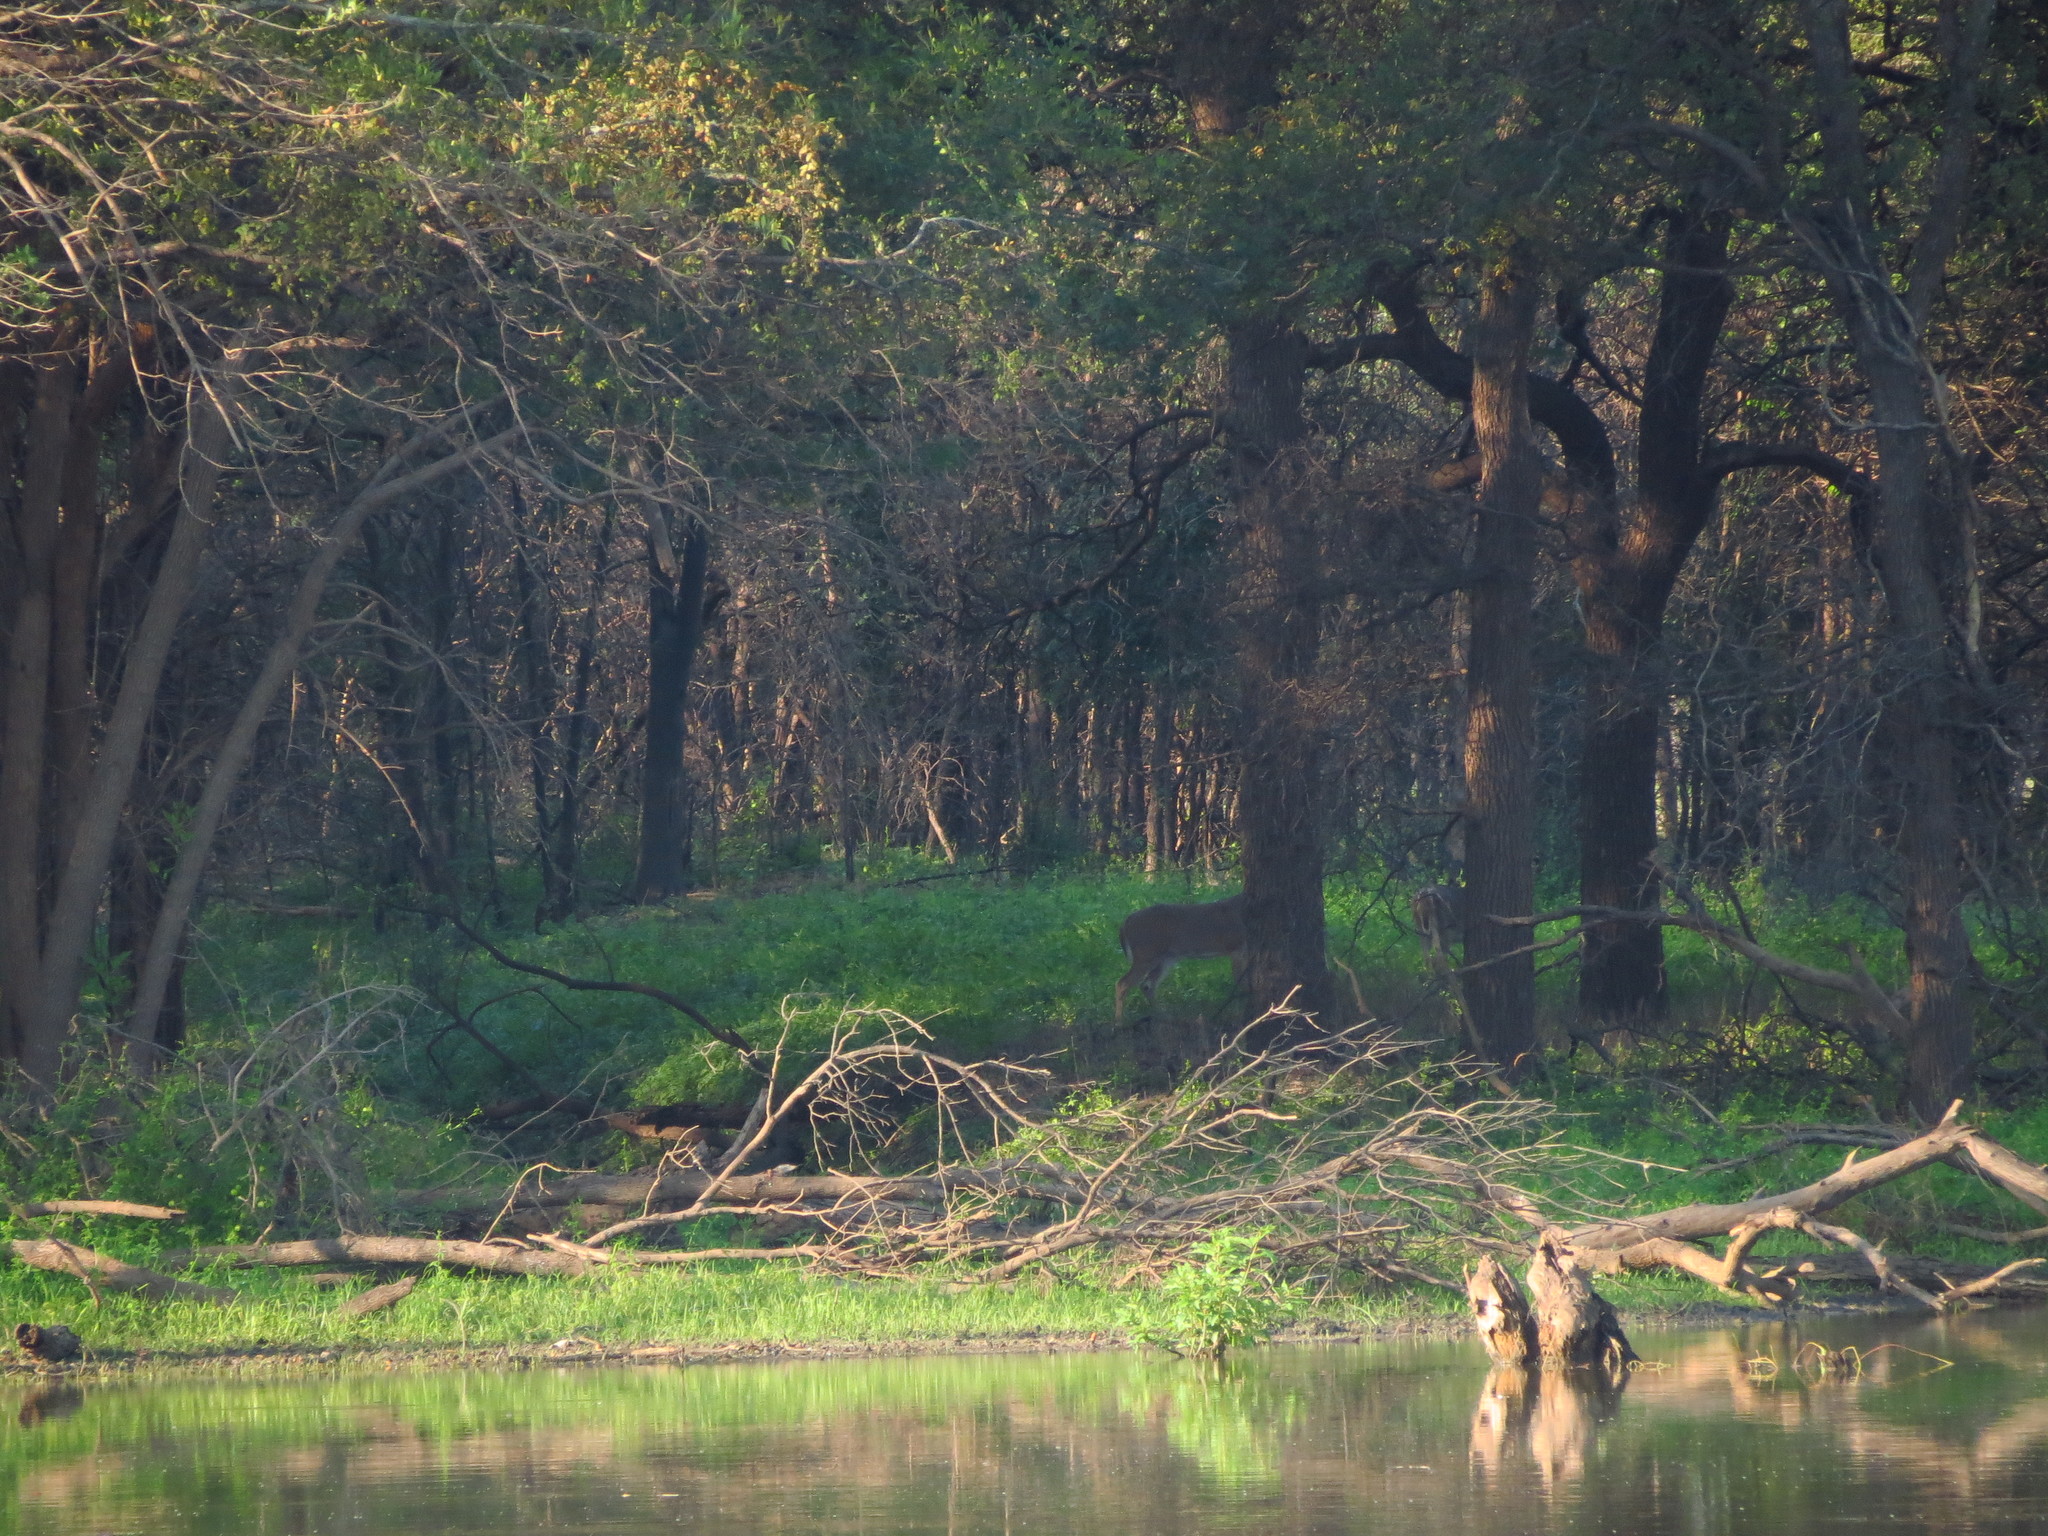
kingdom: Animalia
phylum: Chordata
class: Mammalia
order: Artiodactyla
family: Cervidae
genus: Odocoileus
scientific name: Odocoileus virginianus
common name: White-tailed deer
